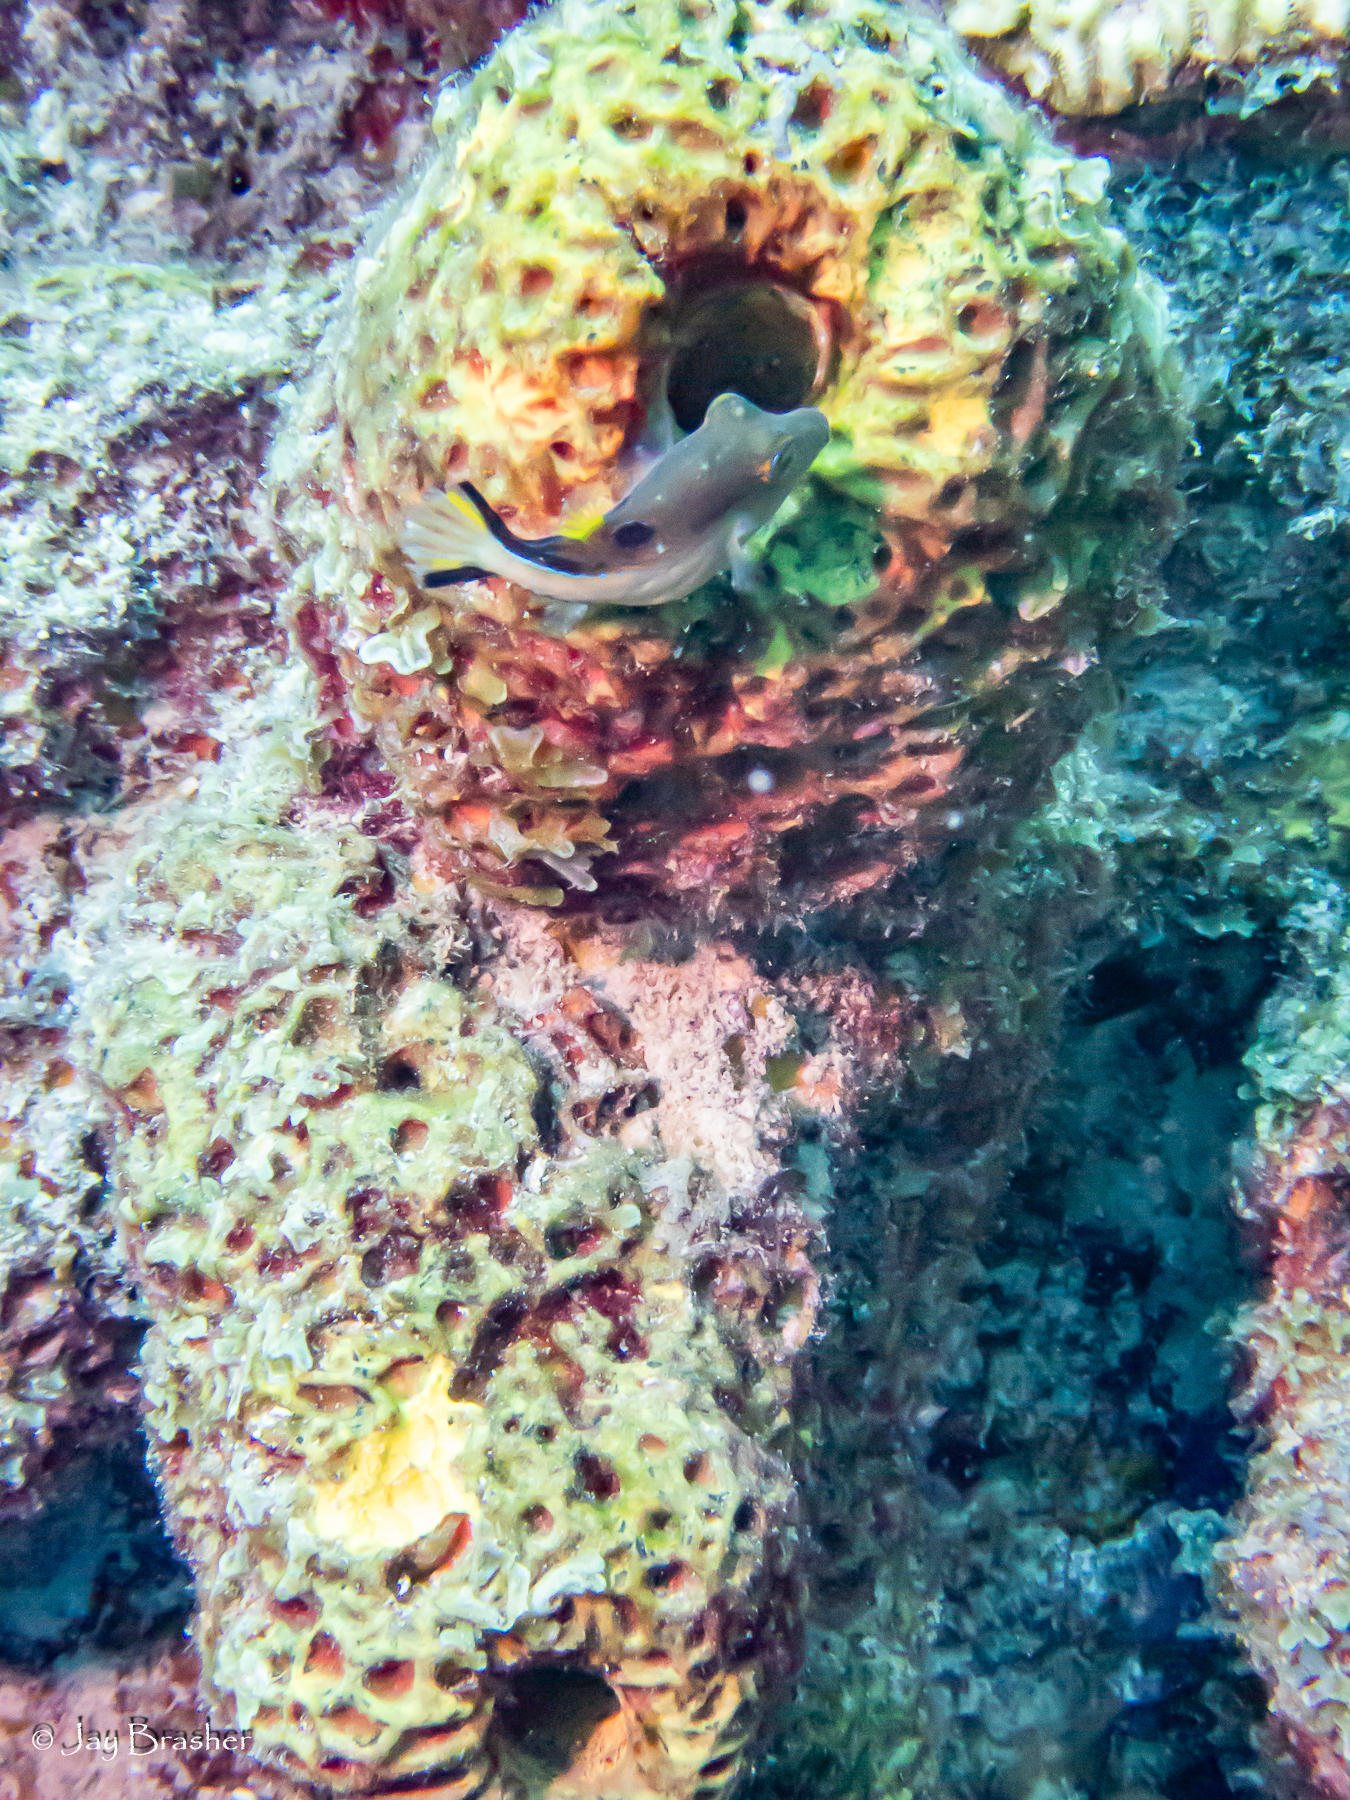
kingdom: Animalia
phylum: Chordata
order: Tetraodontiformes
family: Tetraodontidae
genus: Canthigaster
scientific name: Canthigaster rostrata
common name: Caribbean sharpnose-puffer
